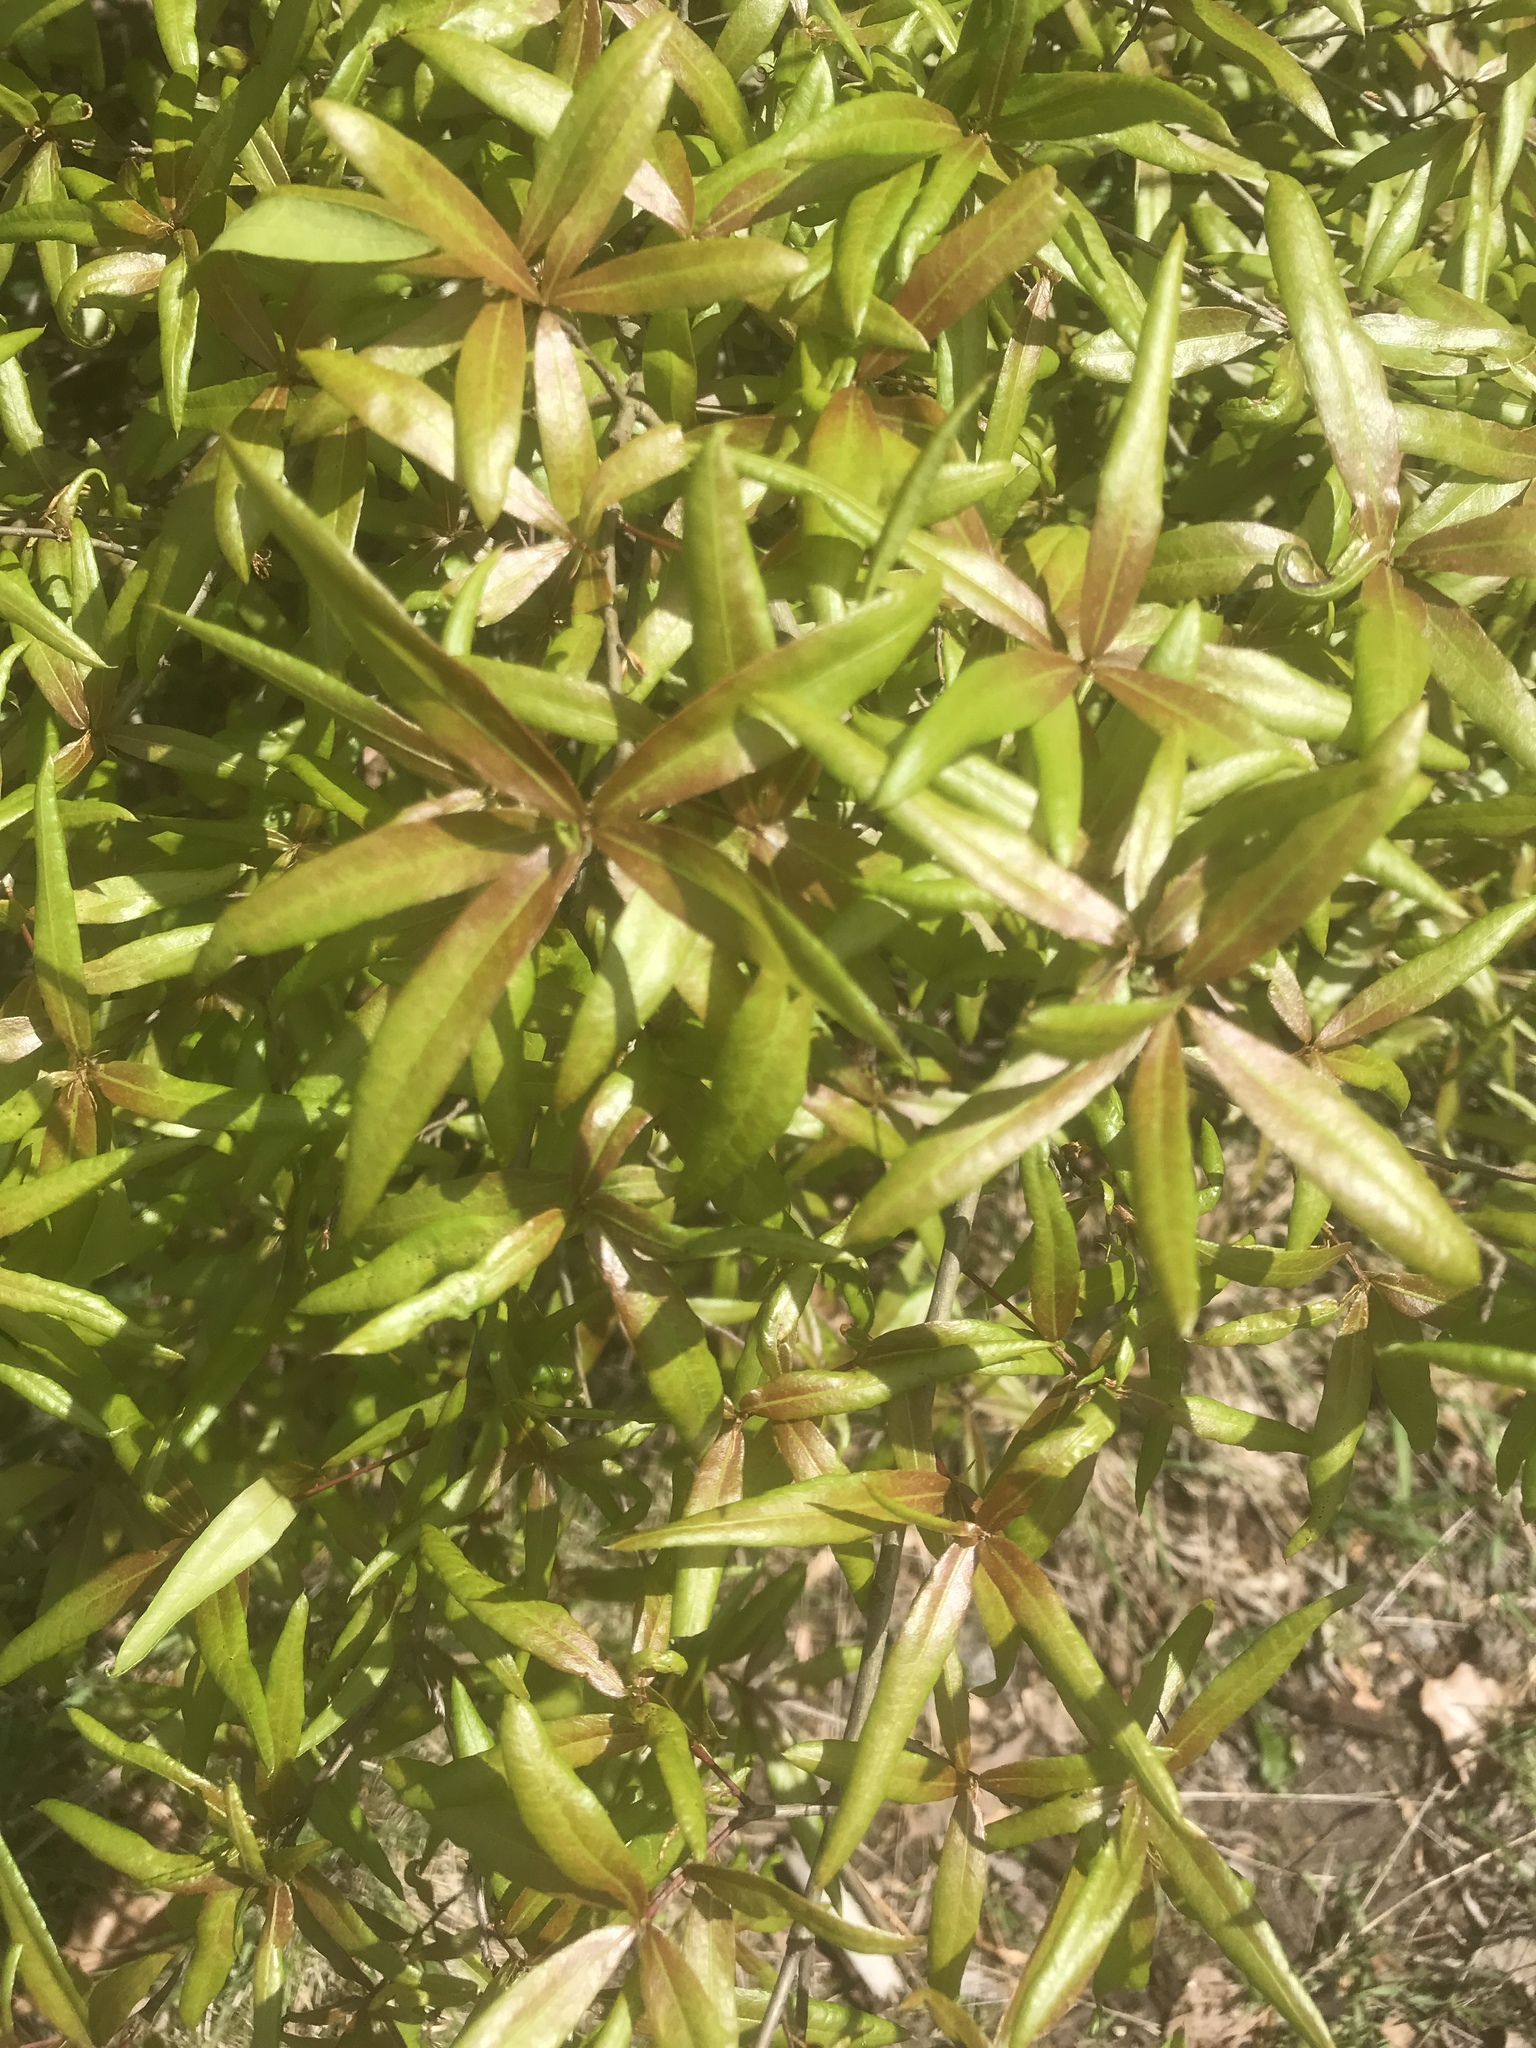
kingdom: Plantae
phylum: Tracheophyta
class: Magnoliopsida
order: Fagales
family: Fagaceae
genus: Quercus
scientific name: Quercus phellos
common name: Willow oak
